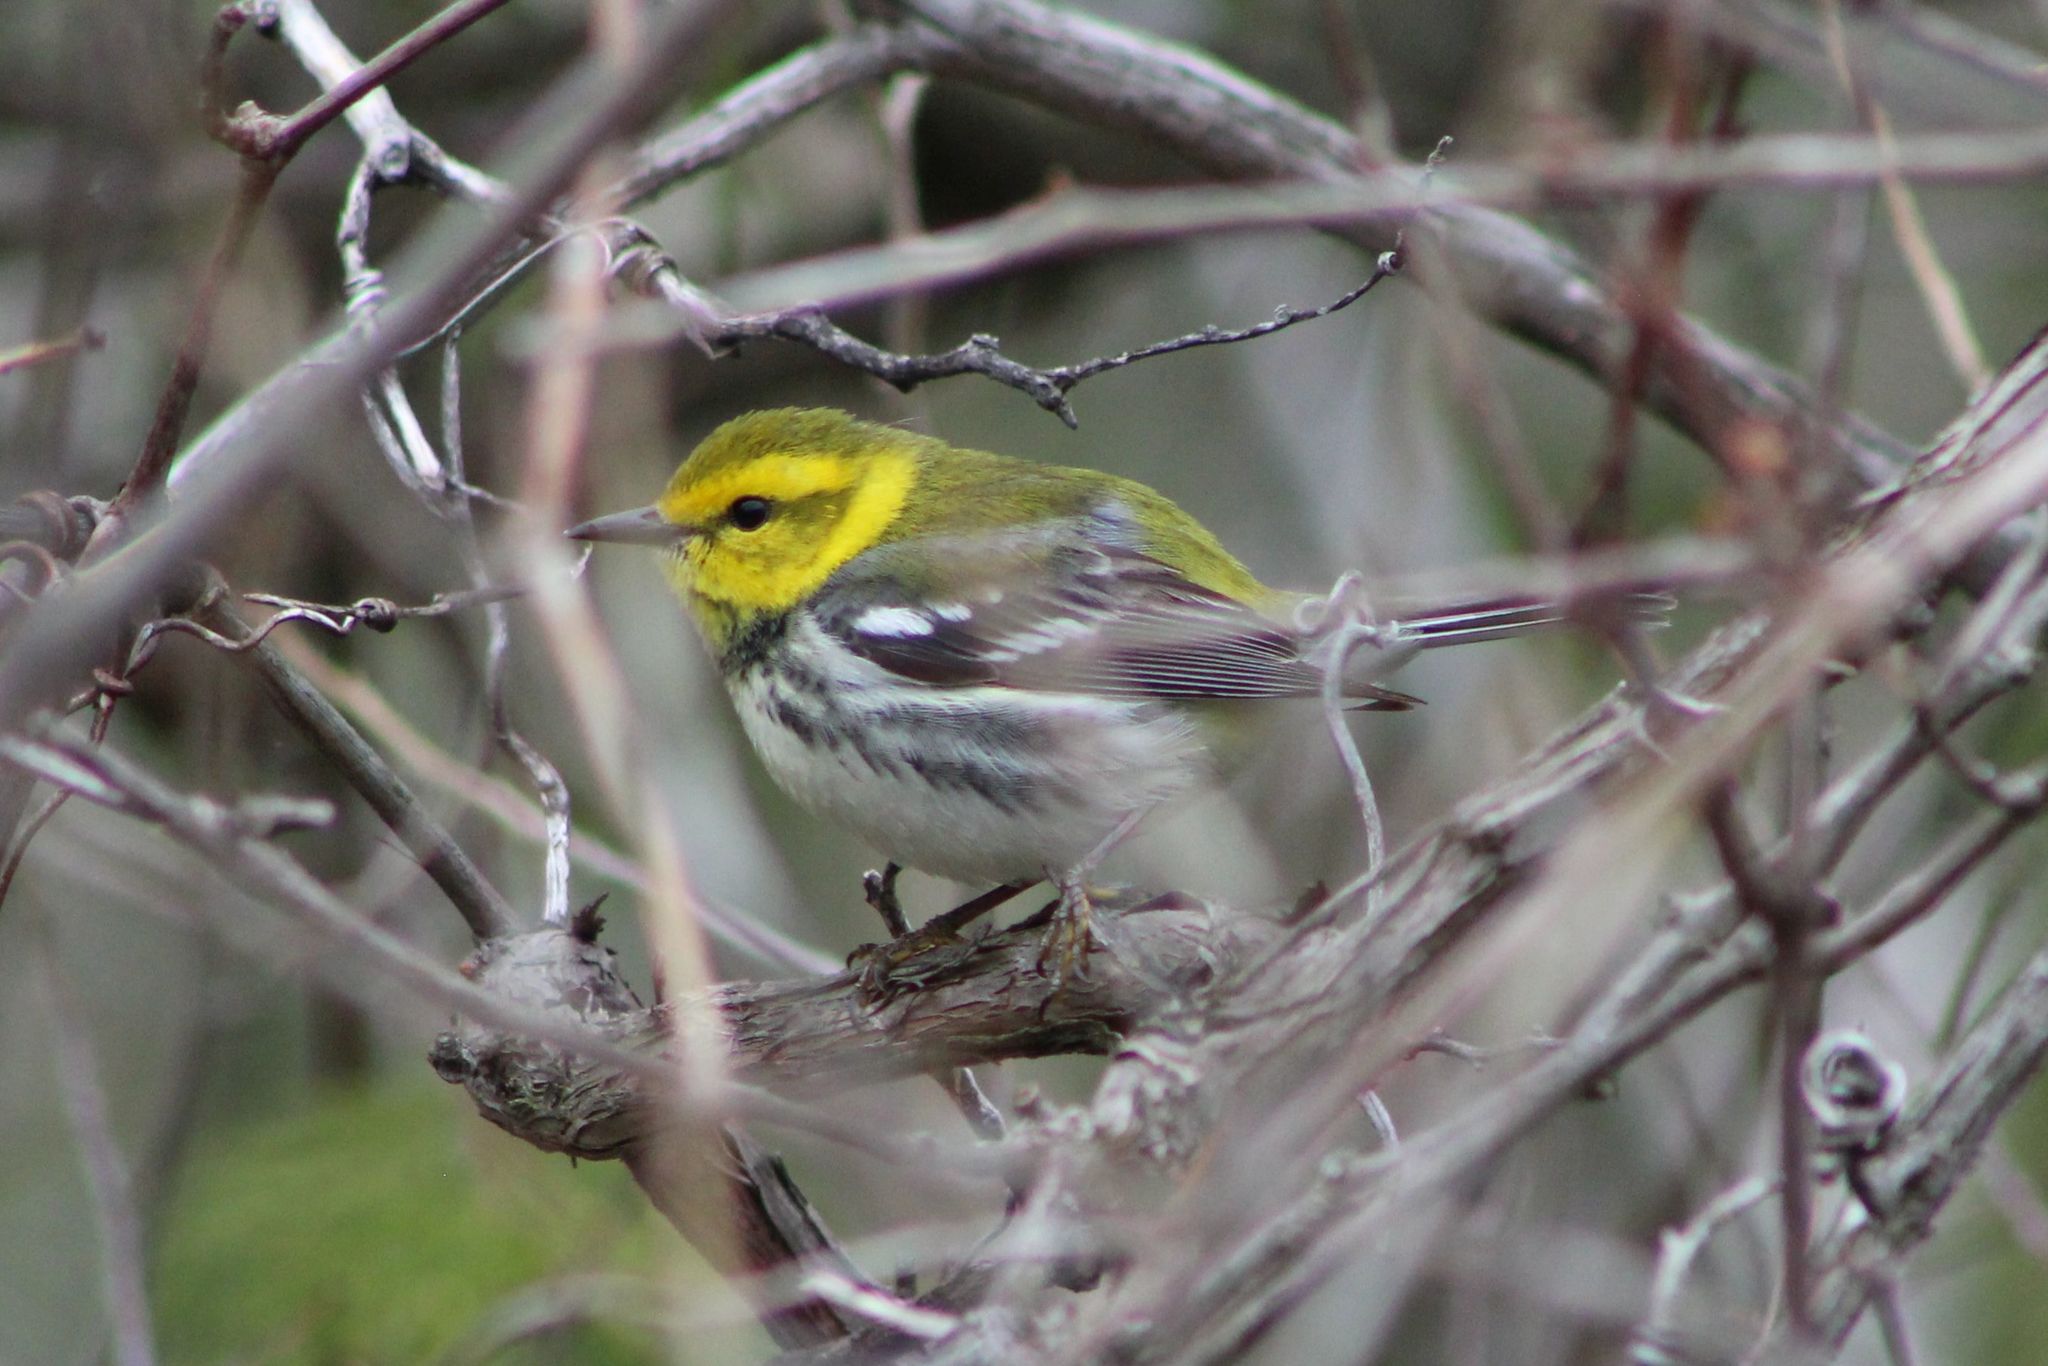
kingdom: Animalia
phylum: Chordata
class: Aves
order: Passeriformes
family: Parulidae
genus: Setophaga
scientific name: Setophaga virens
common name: Black-throated green warbler
